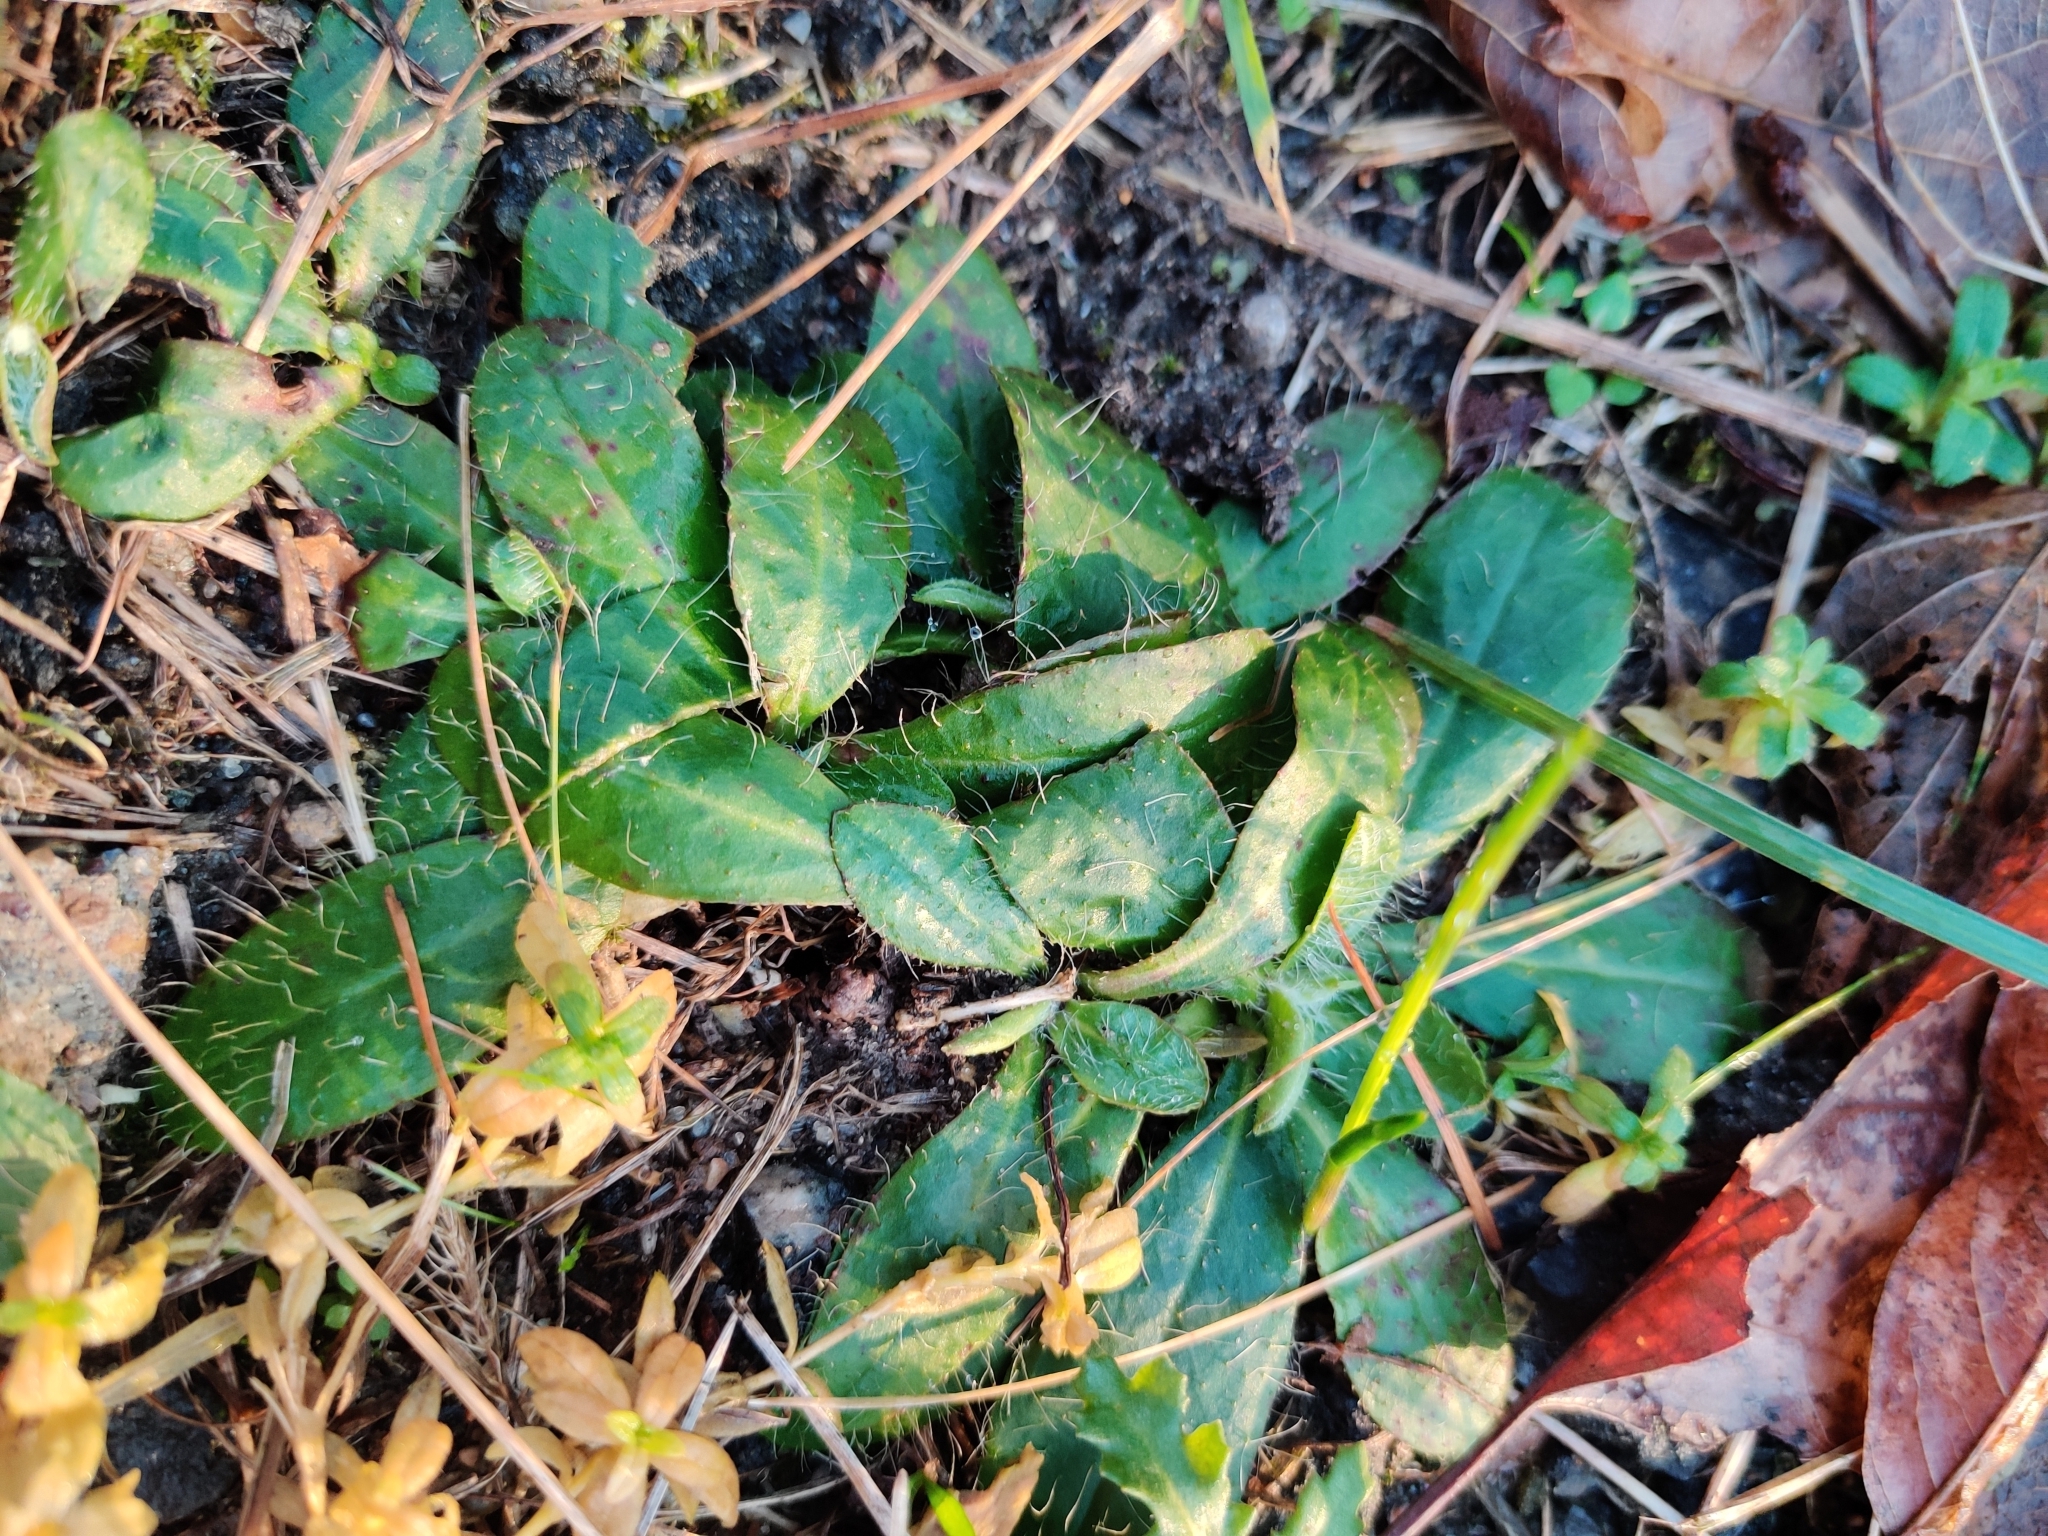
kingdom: Plantae
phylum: Tracheophyta
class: Magnoliopsida
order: Asterales
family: Asteraceae
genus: Pilosella
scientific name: Pilosella officinarum
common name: Mouse-ear hawkweed
